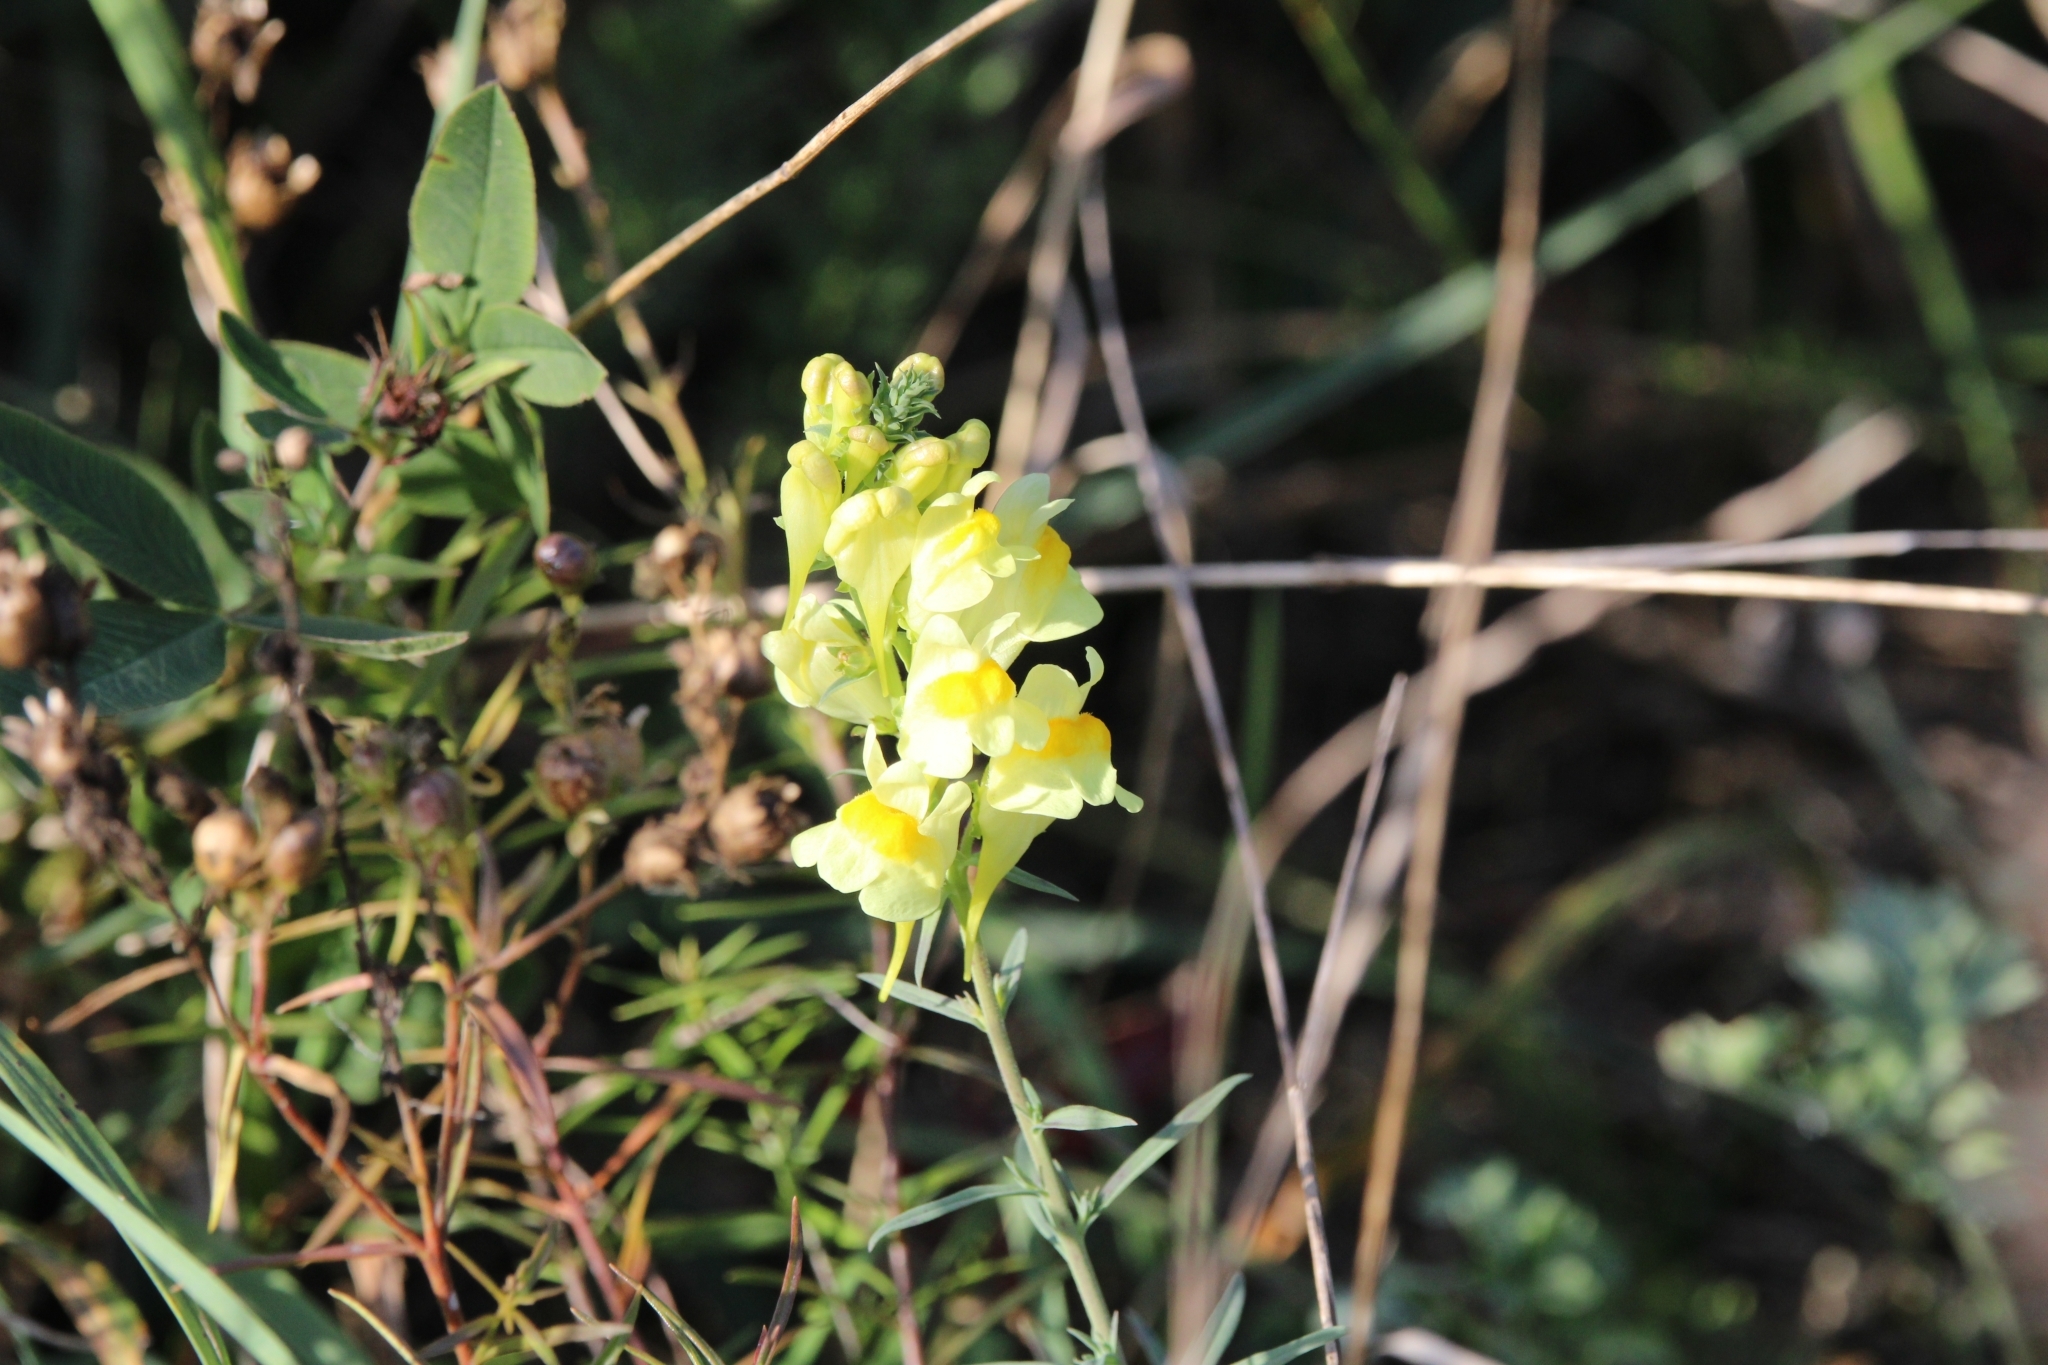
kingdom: Plantae
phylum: Tracheophyta
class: Magnoliopsida
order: Lamiales
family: Plantaginaceae
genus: Linaria
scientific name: Linaria vulgaris
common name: Butter and eggs
